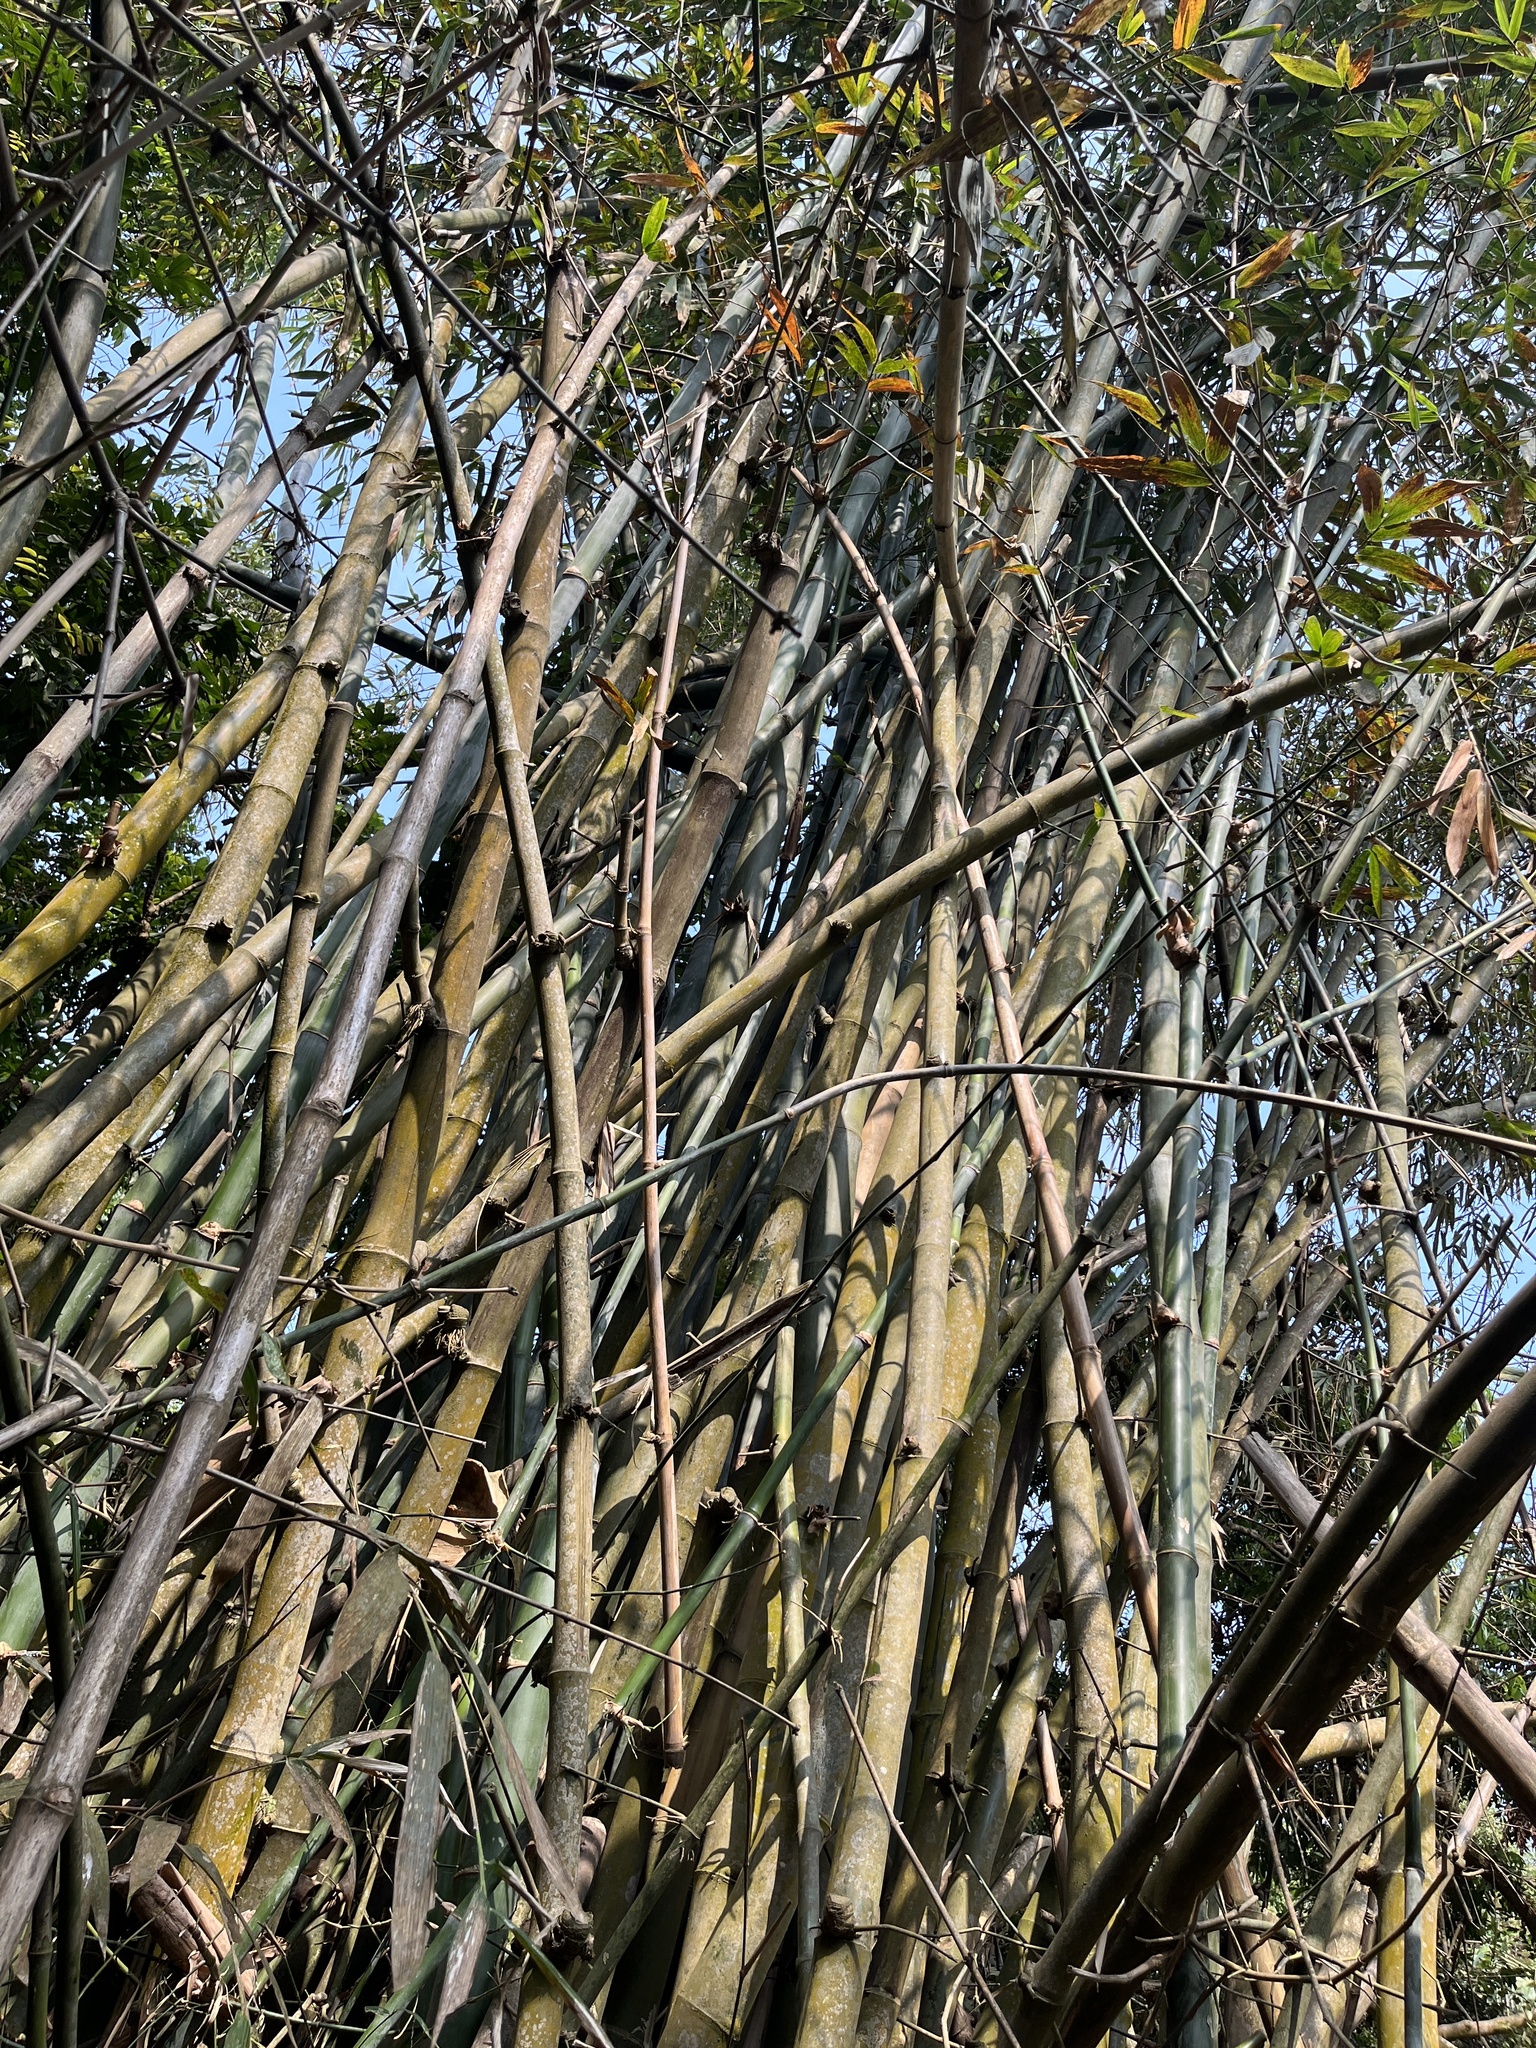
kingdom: Plantae
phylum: Tracheophyta
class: Liliopsida
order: Poales
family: Poaceae
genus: Dendrocalamus
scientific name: Dendrocalamus latiflorus
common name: Giant bamboo
